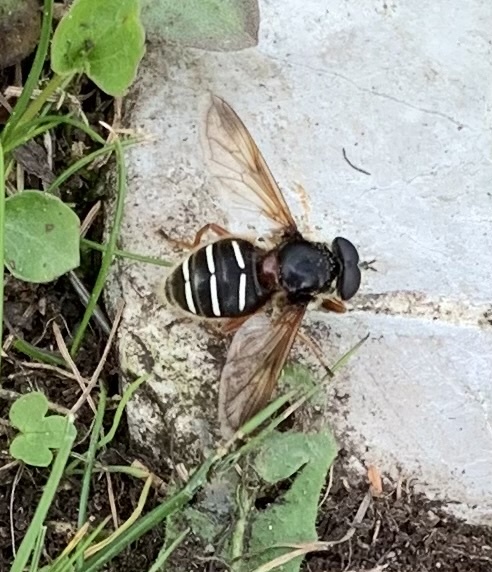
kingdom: Animalia
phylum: Arthropoda
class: Insecta
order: Diptera
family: Syrphidae
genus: Sericomyia
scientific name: Sericomyia lappona
